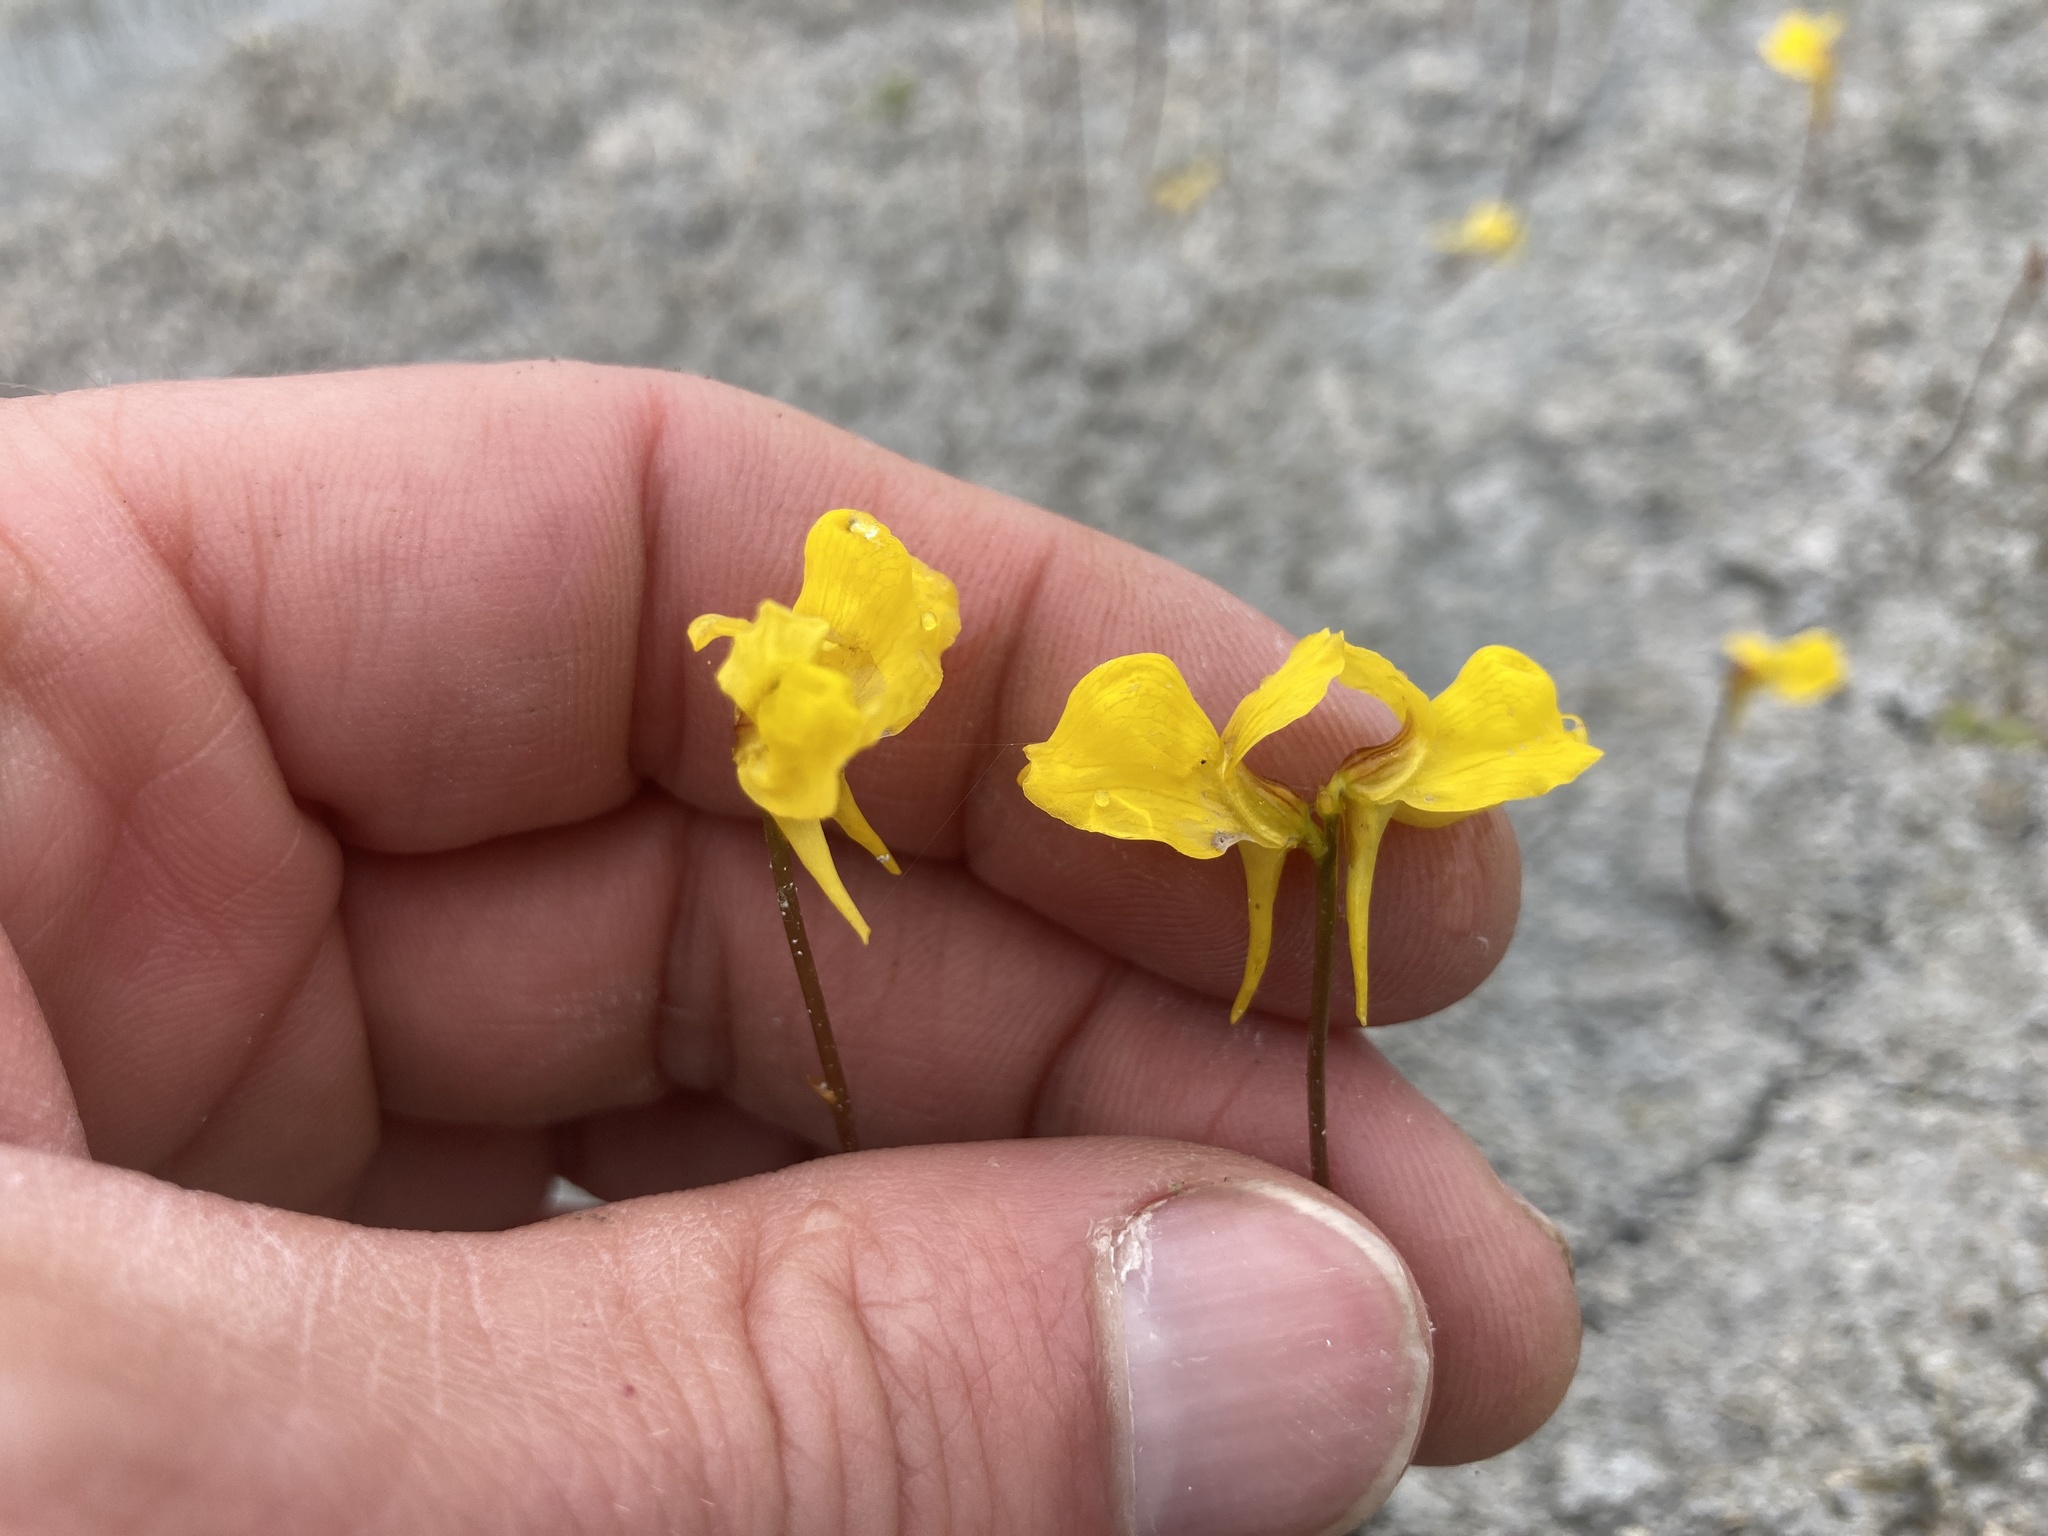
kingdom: Plantae
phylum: Tracheophyta
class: Magnoliopsida
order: Lamiales
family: Lentibulariaceae
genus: Utricularia
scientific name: Utricularia cornuta
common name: Horned bladderwort
